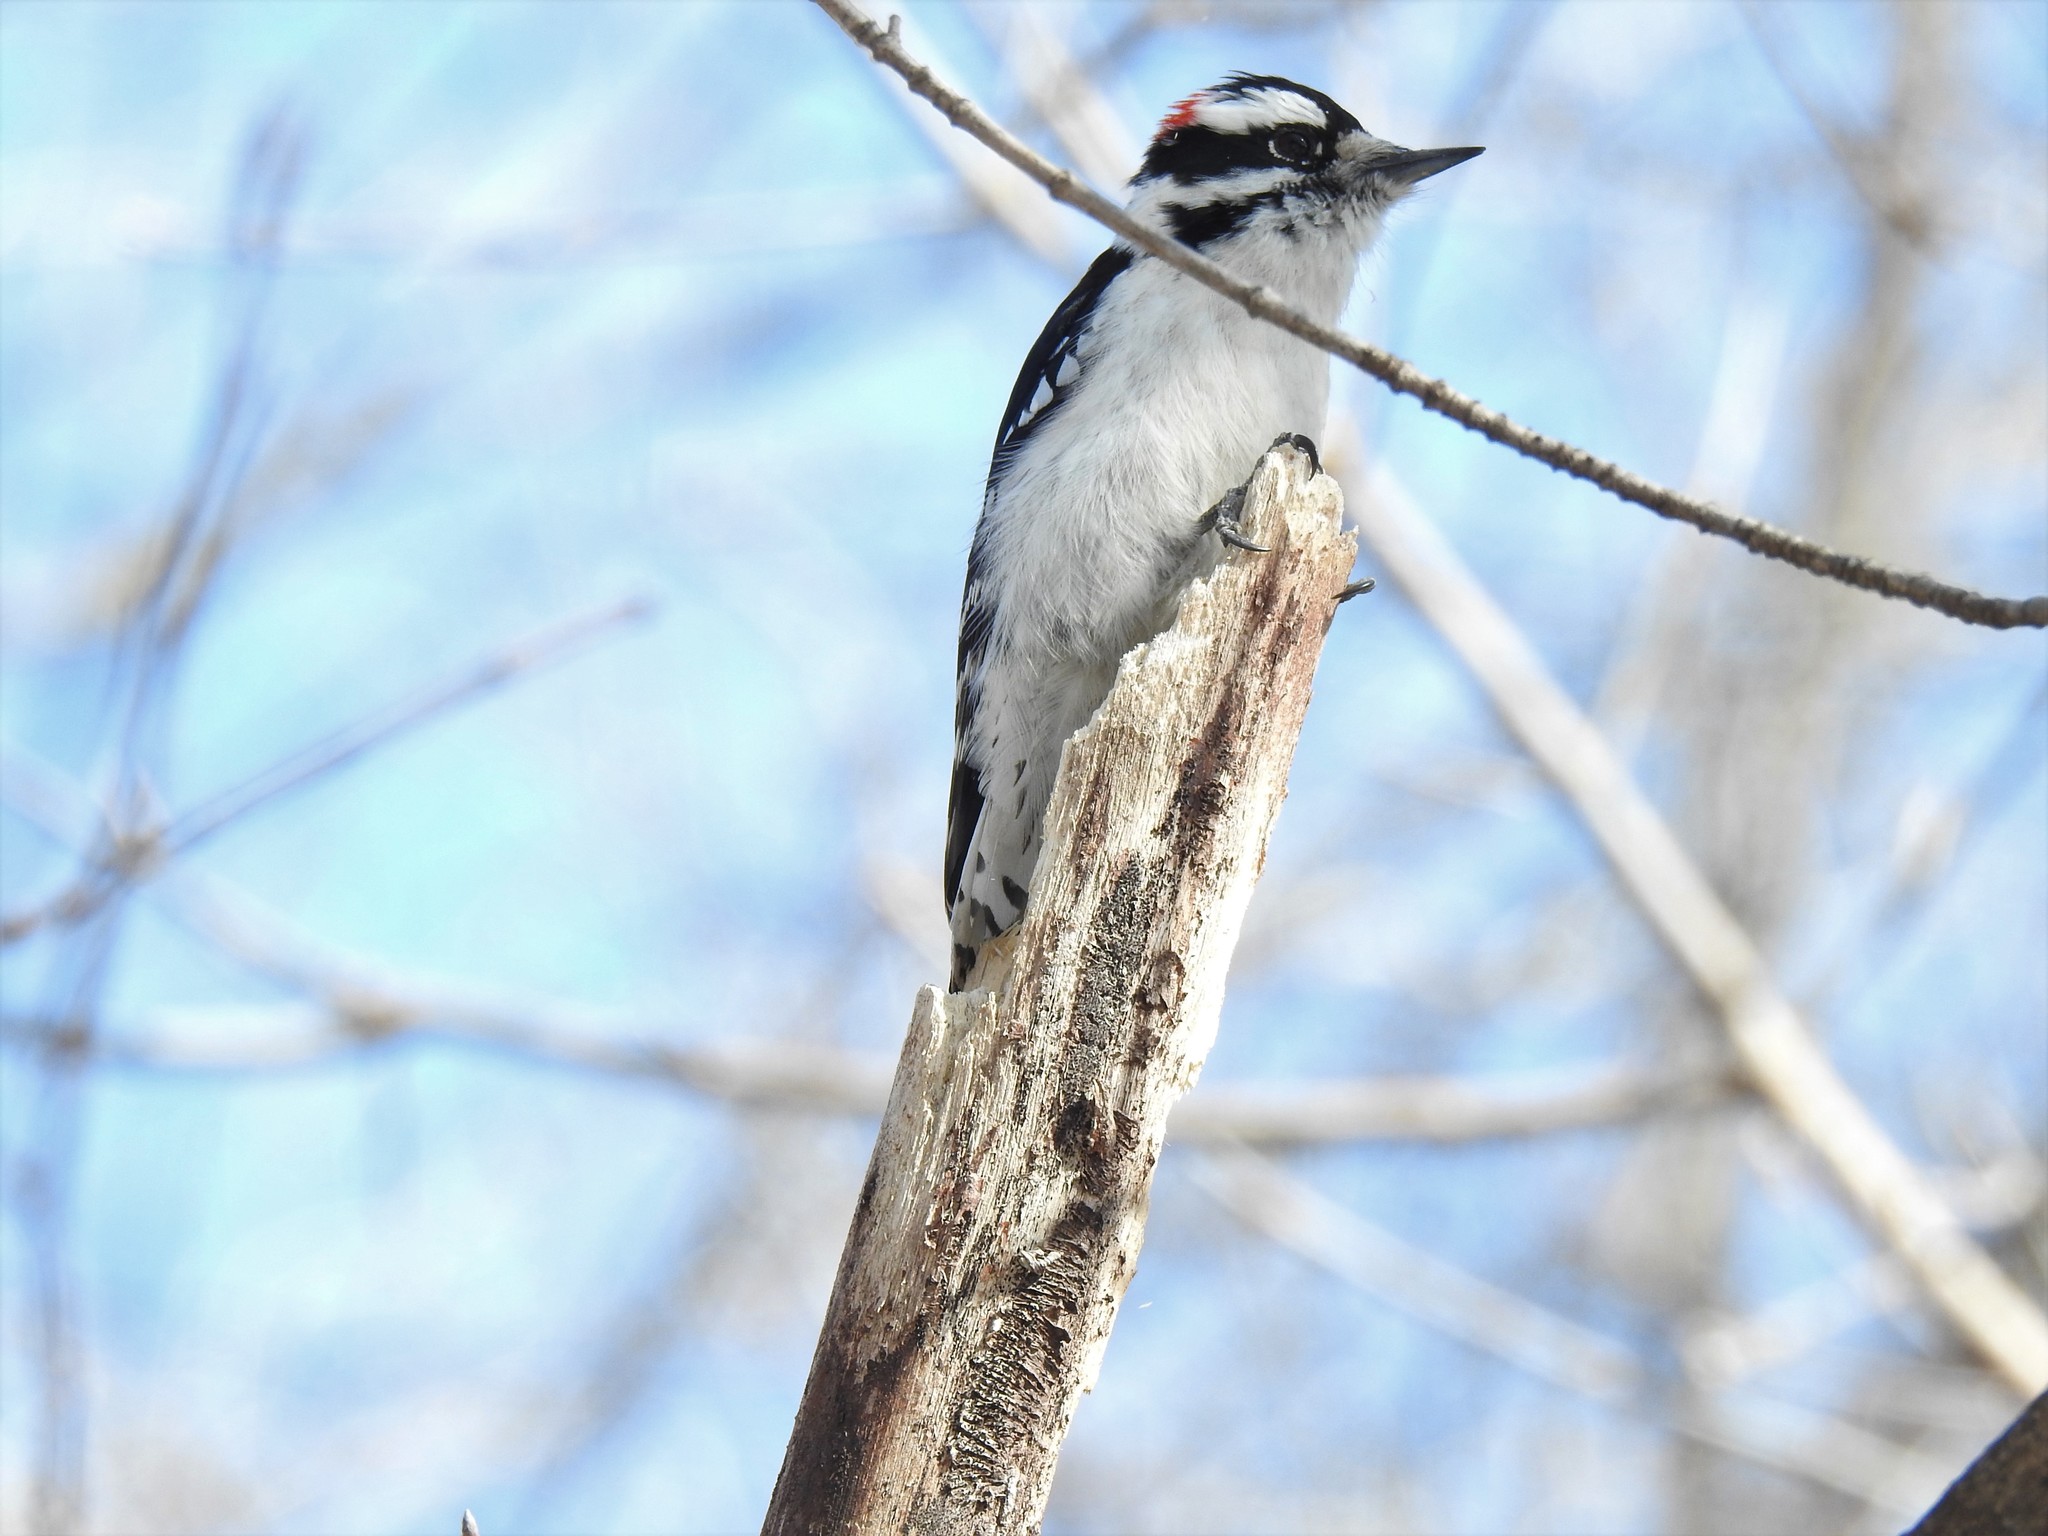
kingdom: Animalia
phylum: Chordata
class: Aves
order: Piciformes
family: Picidae
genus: Dryobates
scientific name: Dryobates pubescens
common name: Downy woodpecker
